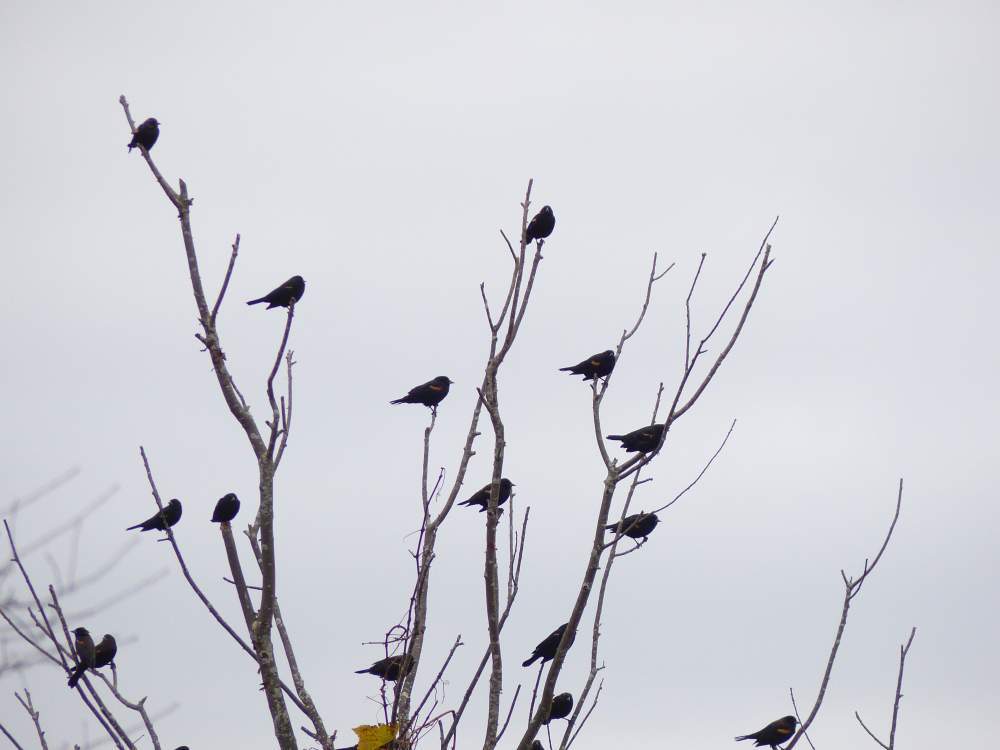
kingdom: Animalia
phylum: Chordata
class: Aves
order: Passeriformes
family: Icteridae
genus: Agelaius
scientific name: Agelaius phoeniceus
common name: Red-winged blackbird
